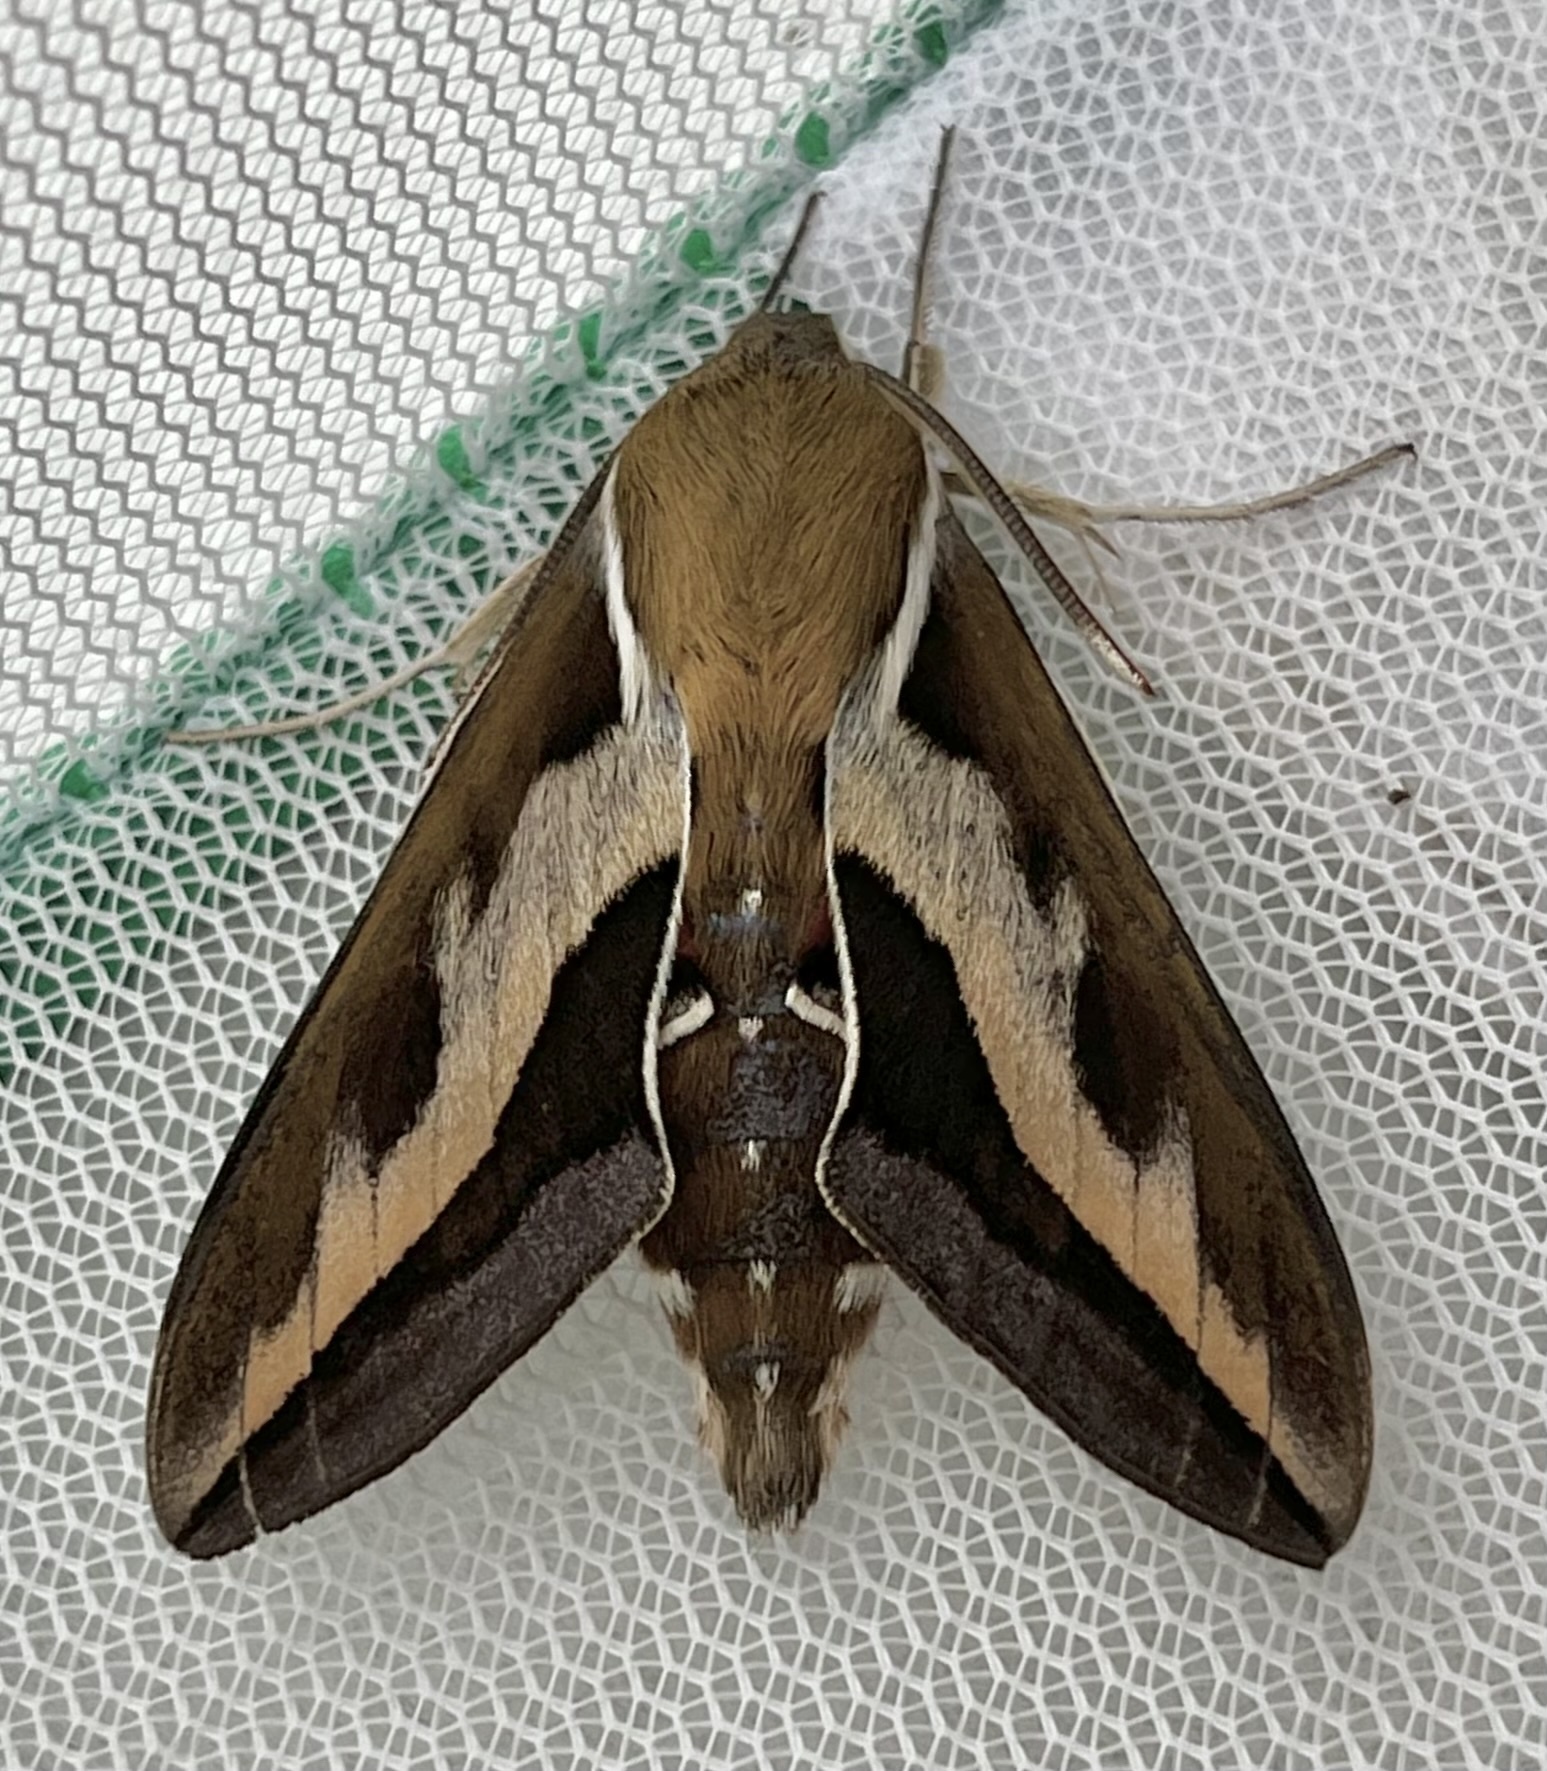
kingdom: Animalia
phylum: Arthropoda
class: Insecta
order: Lepidoptera
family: Sphingidae
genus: Hyles
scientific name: Hyles gallii
